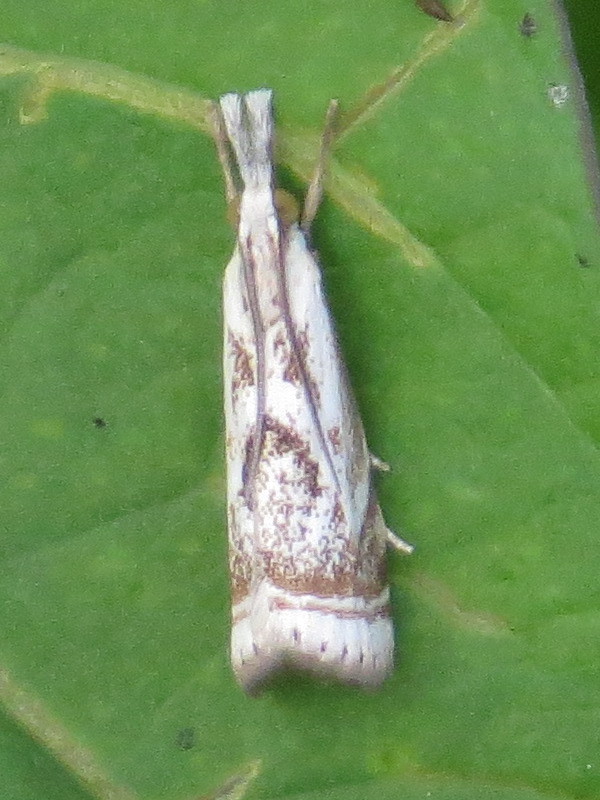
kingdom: Animalia
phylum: Arthropoda
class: Insecta
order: Lepidoptera
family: Crambidae
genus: Microcrambus
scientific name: Microcrambus elegans
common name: Elegant grass-veneer
